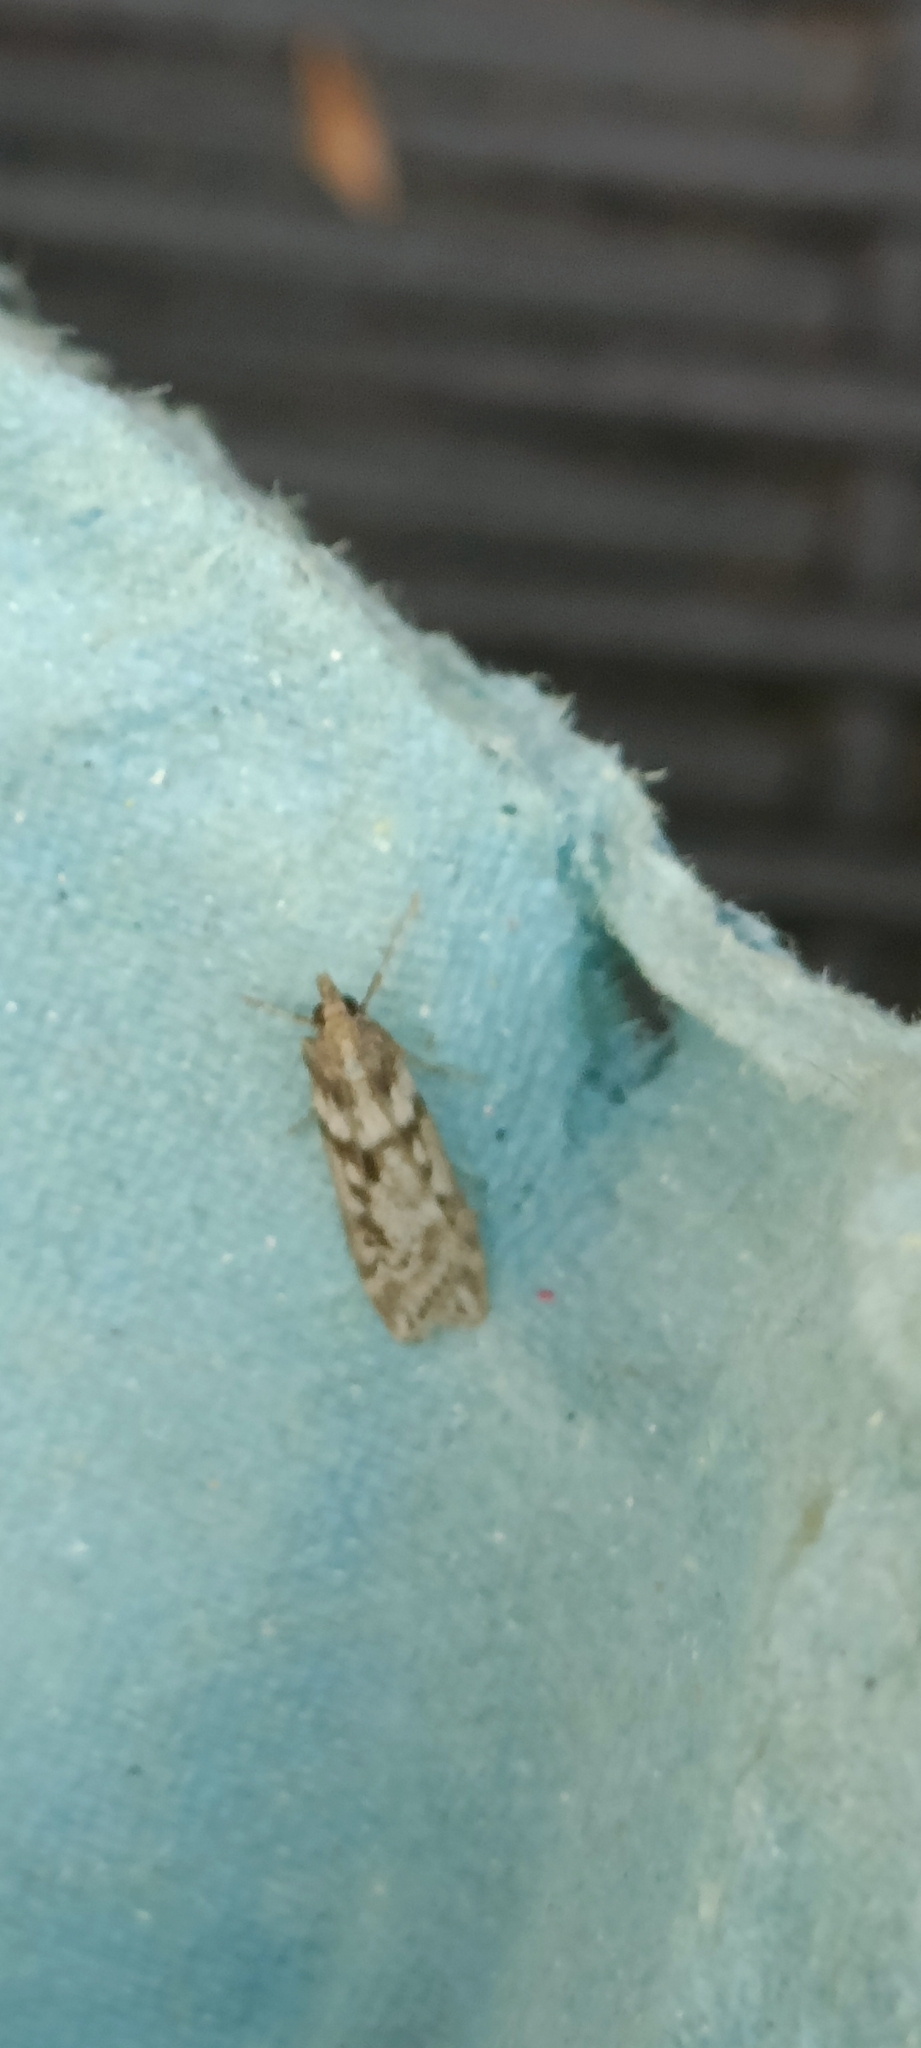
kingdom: Animalia
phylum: Arthropoda
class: Insecta
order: Lepidoptera
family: Crambidae
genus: Eudonia
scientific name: Eudonia angustea
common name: Narrow-winged grey
